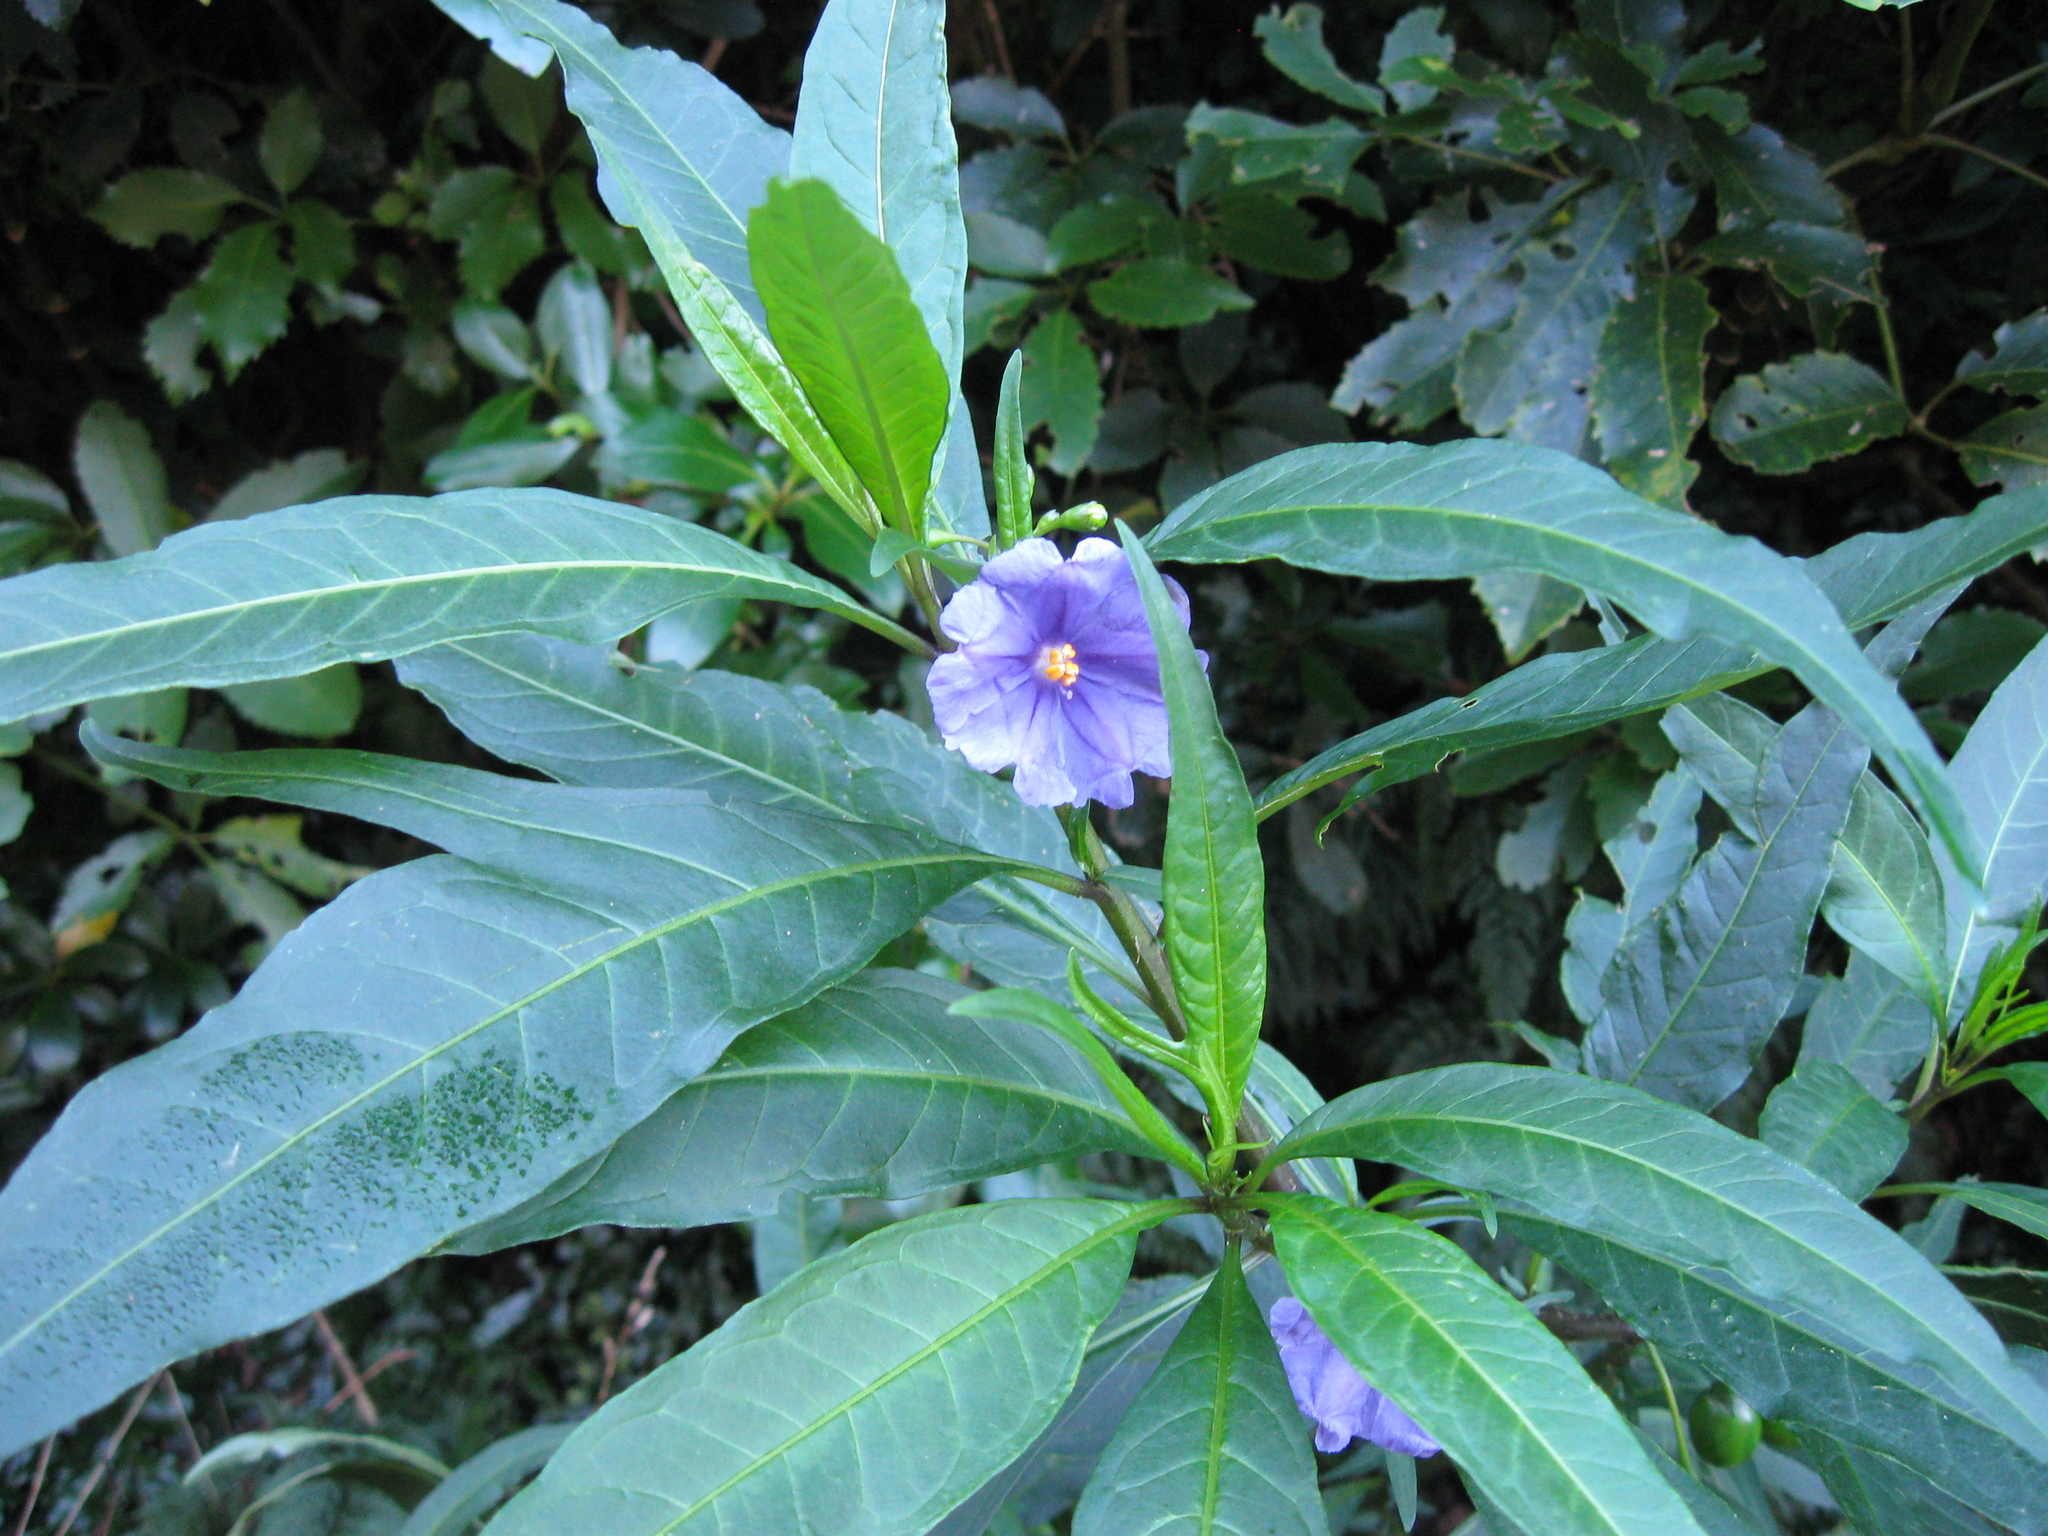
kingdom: Plantae
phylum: Tracheophyta
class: Magnoliopsida
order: Solanales
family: Solanaceae
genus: Solanum
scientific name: Solanum laciniatum
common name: Kangaroo-apple
